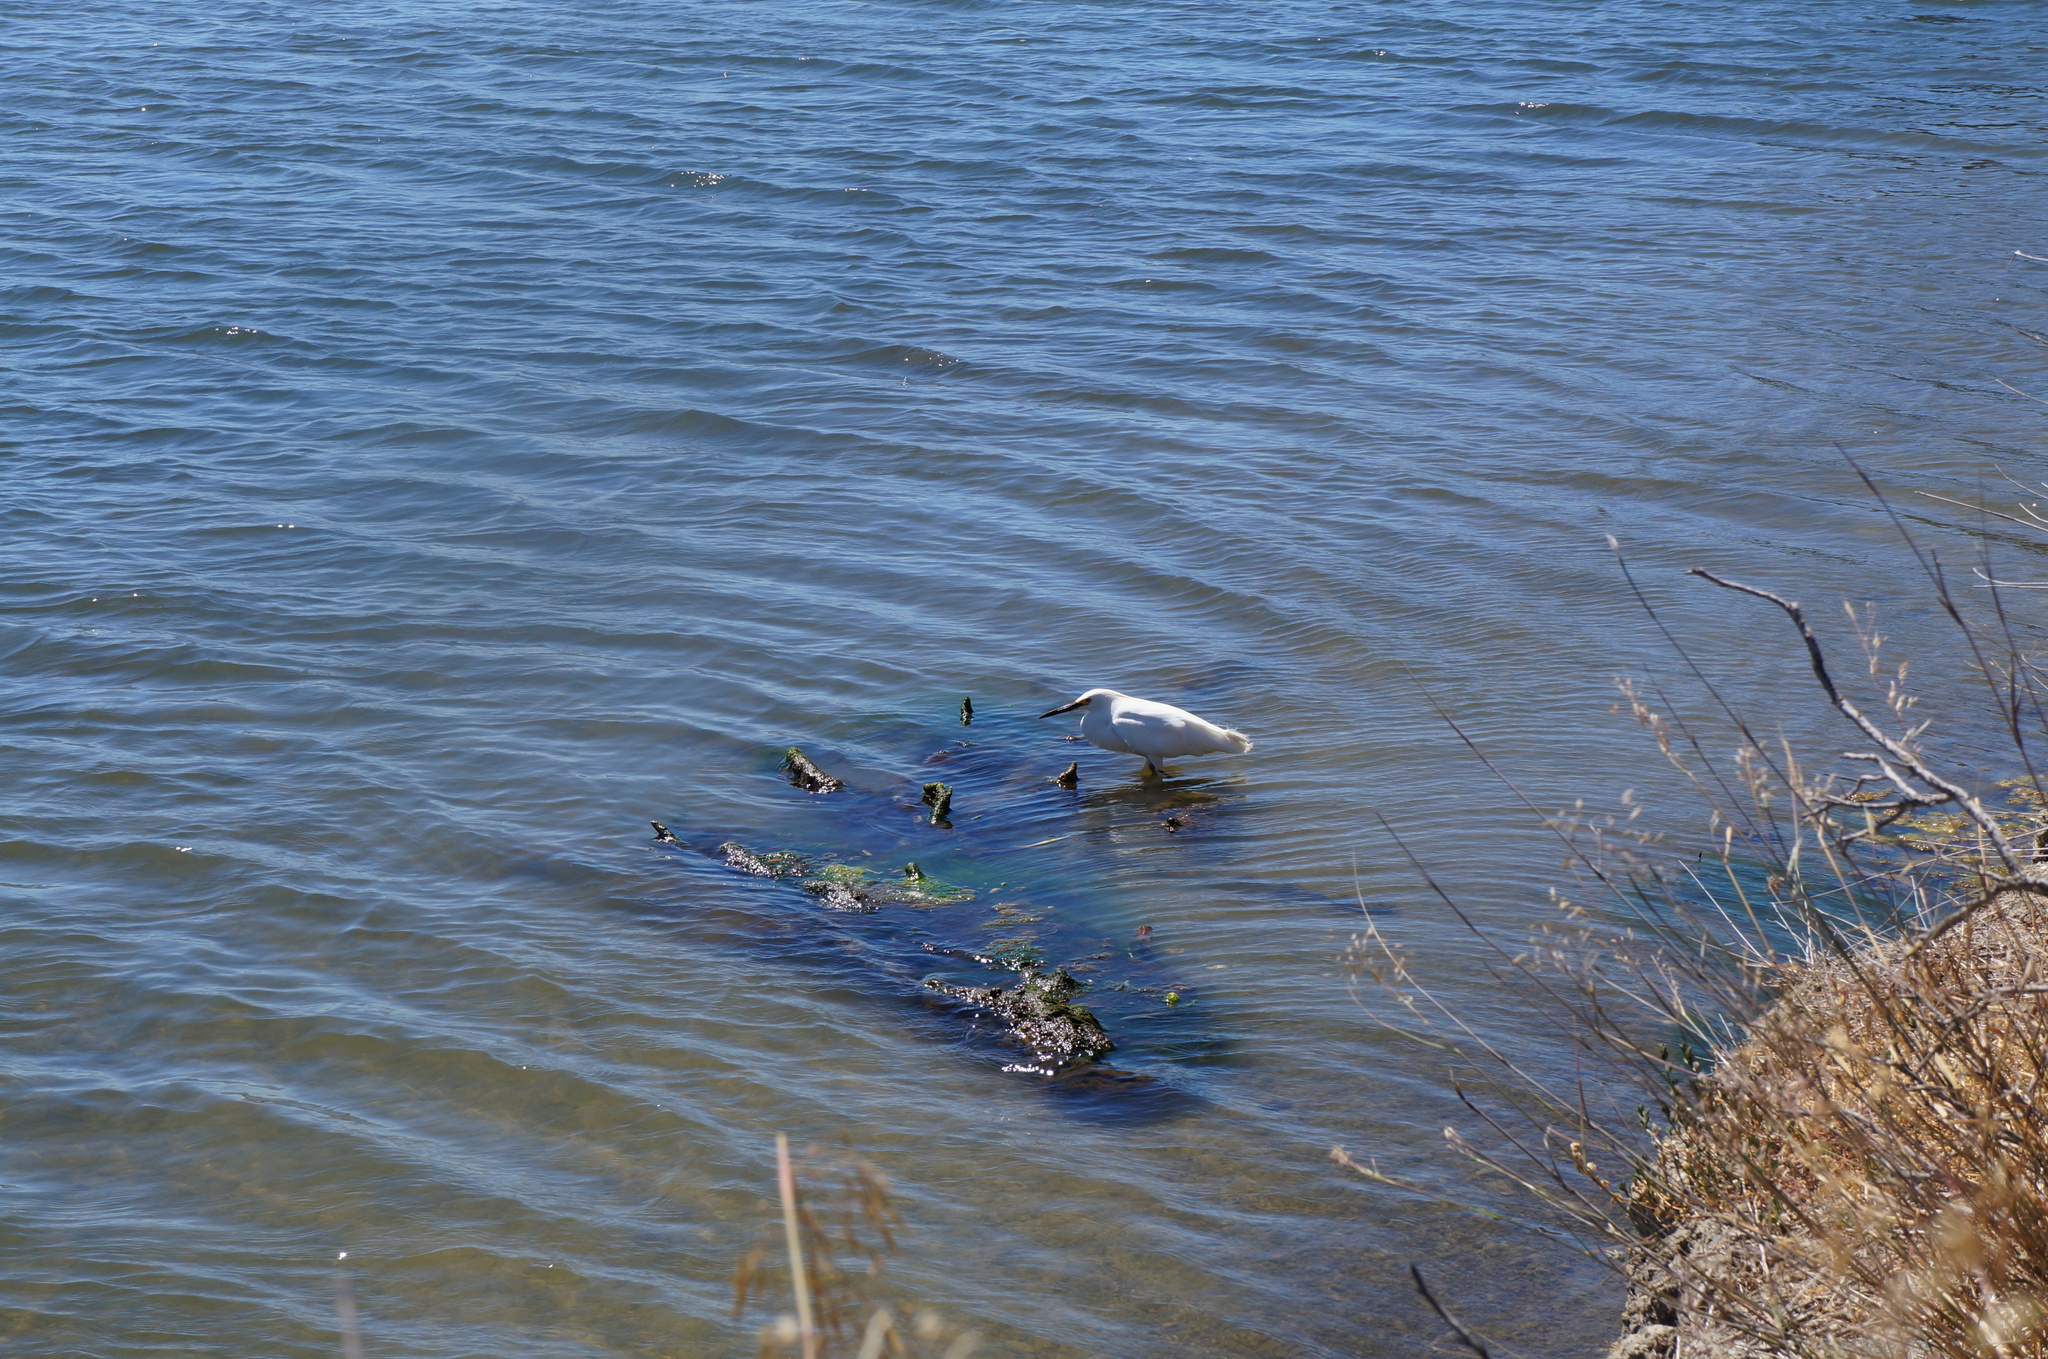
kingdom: Animalia
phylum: Chordata
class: Aves
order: Pelecaniformes
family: Ardeidae
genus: Egretta
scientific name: Egretta thula
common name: Snowy egret
